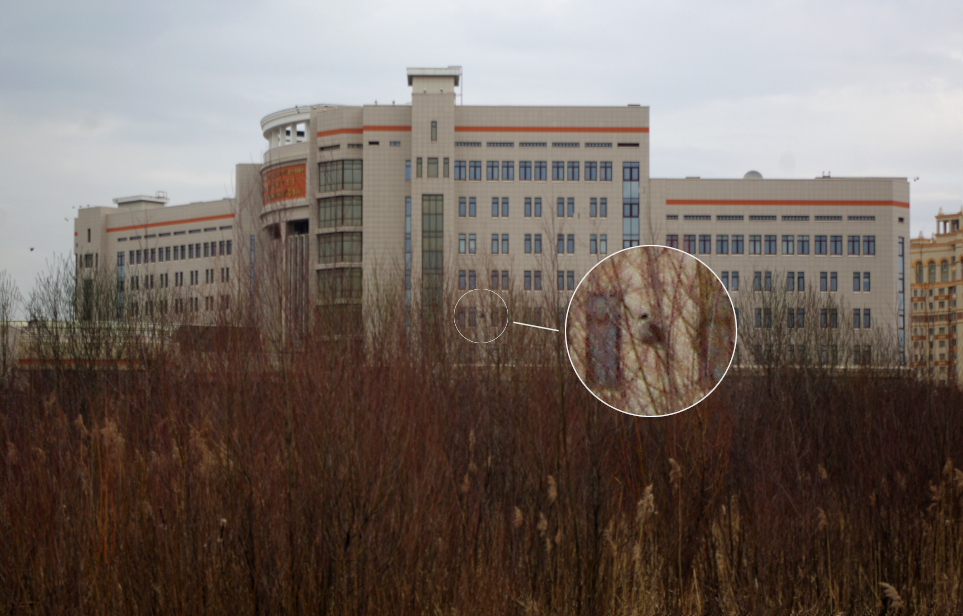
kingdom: Animalia
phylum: Chordata
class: Aves
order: Passeriformes
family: Emberizidae
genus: Emberiza
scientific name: Emberiza schoeniclus
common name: Reed bunting
